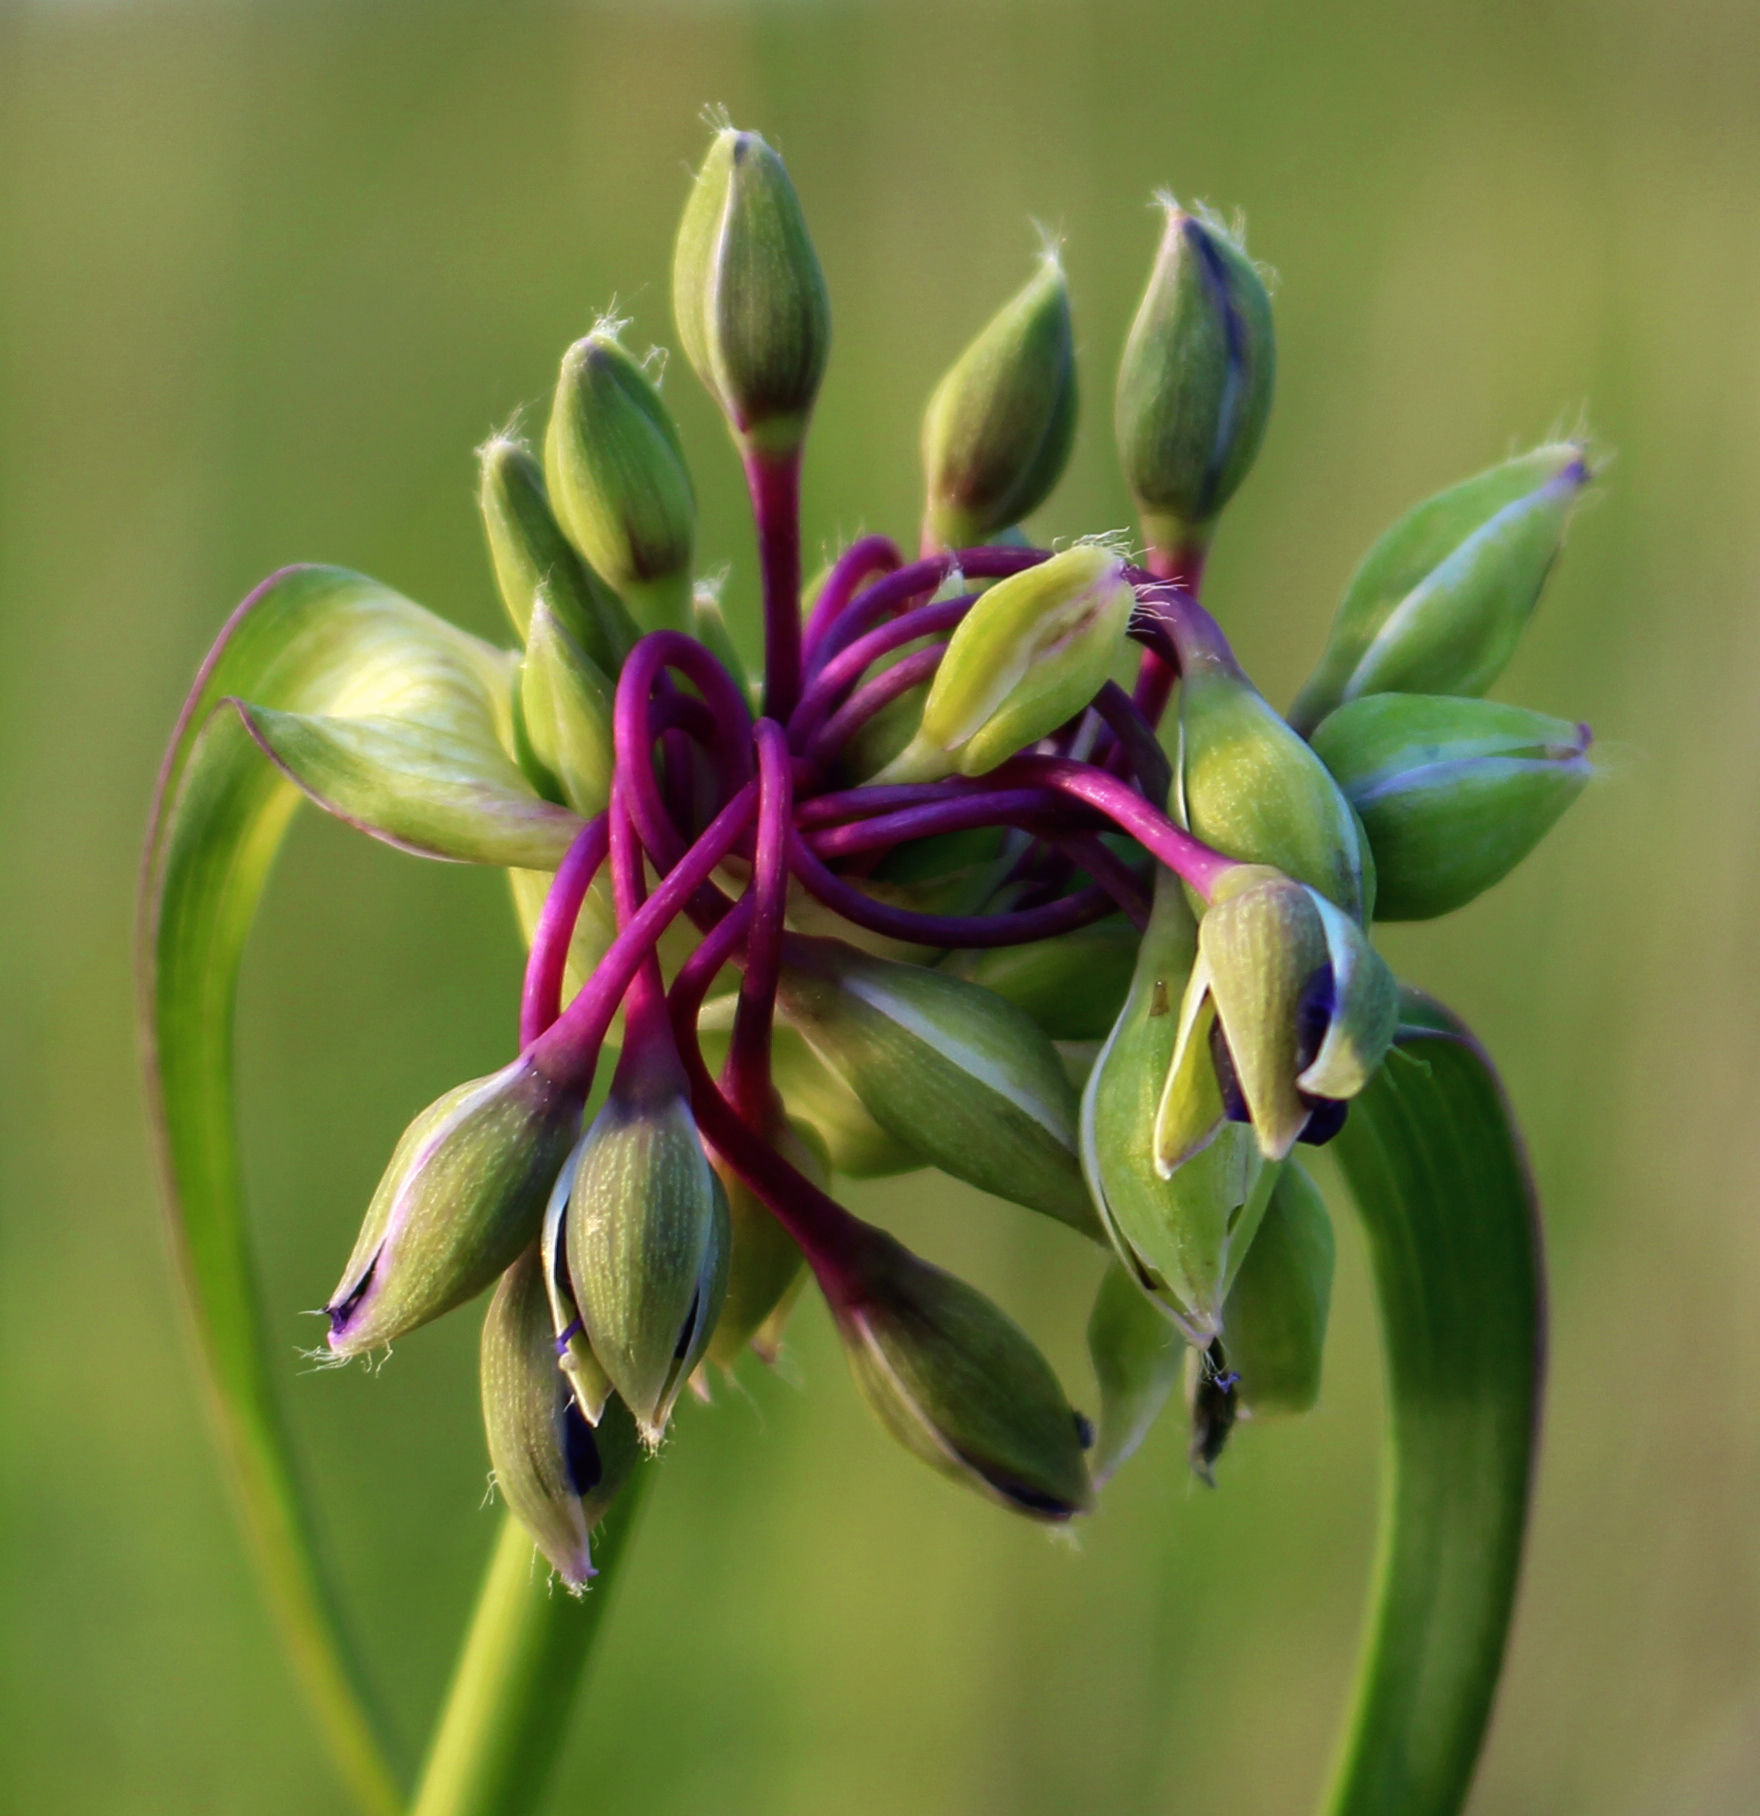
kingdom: Plantae
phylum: Tracheophyta
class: Liliopsida
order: Commelinales
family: Commelinaceae
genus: Tradescantia
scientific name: Tradescantia ohiensis
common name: Ohio spiderwort
